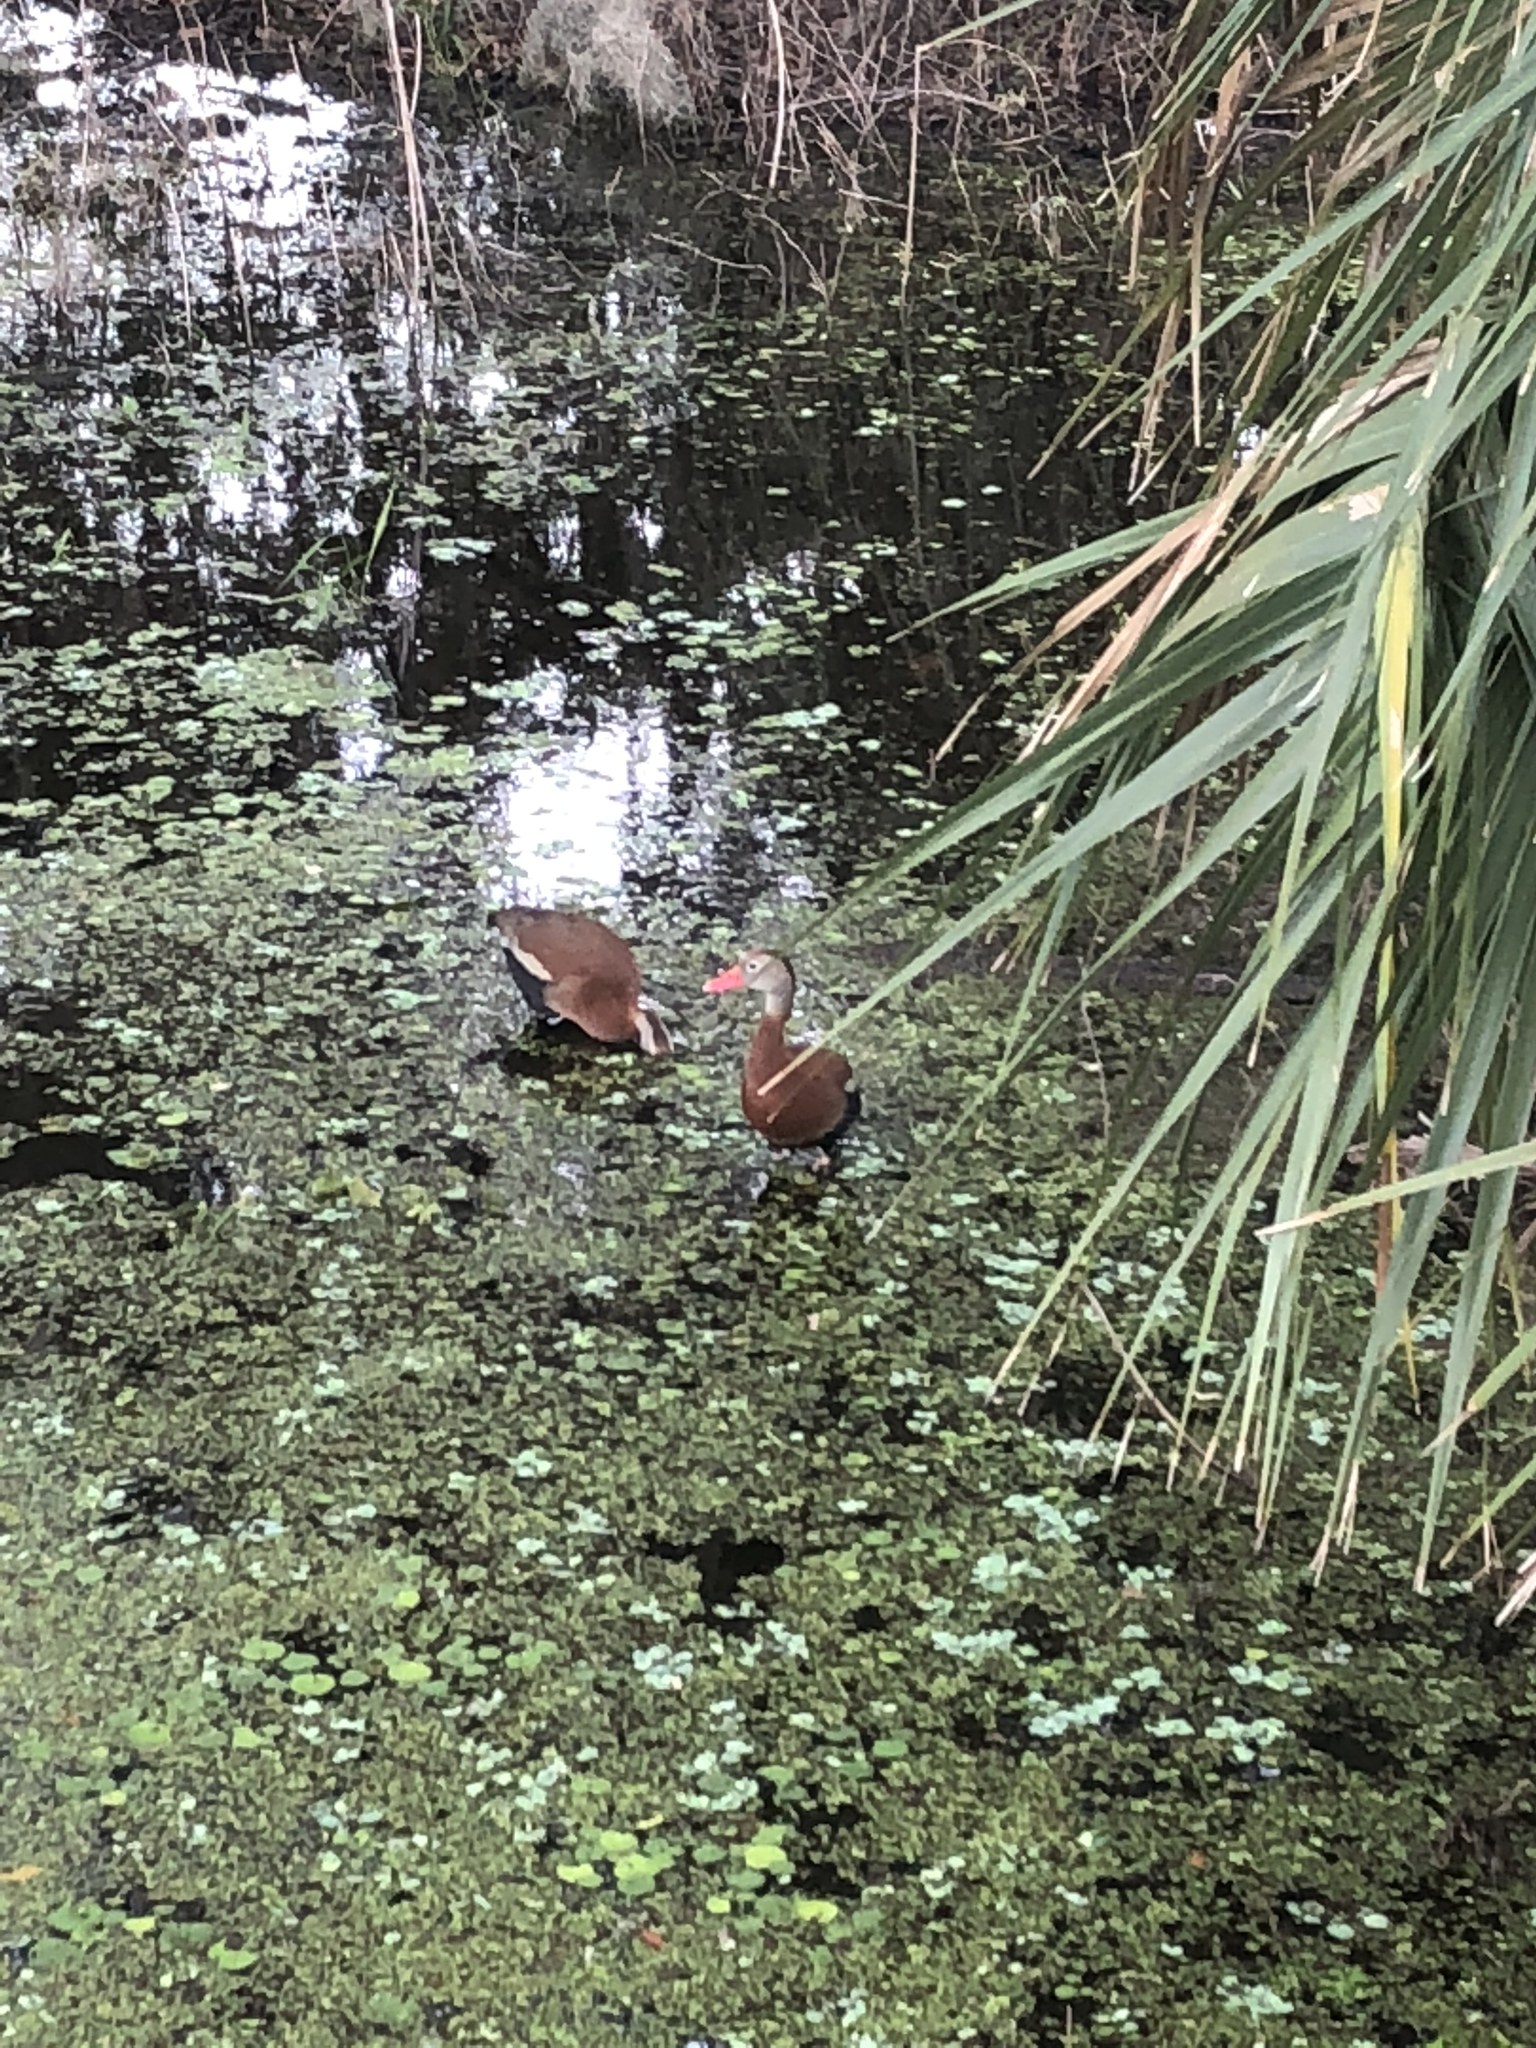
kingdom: Animalia
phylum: Chordata
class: Aves
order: Anseriformes
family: Anatidae
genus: Dendrocygna
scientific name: Dendrocygna autumnalis
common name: Black-bellied whistling duck
